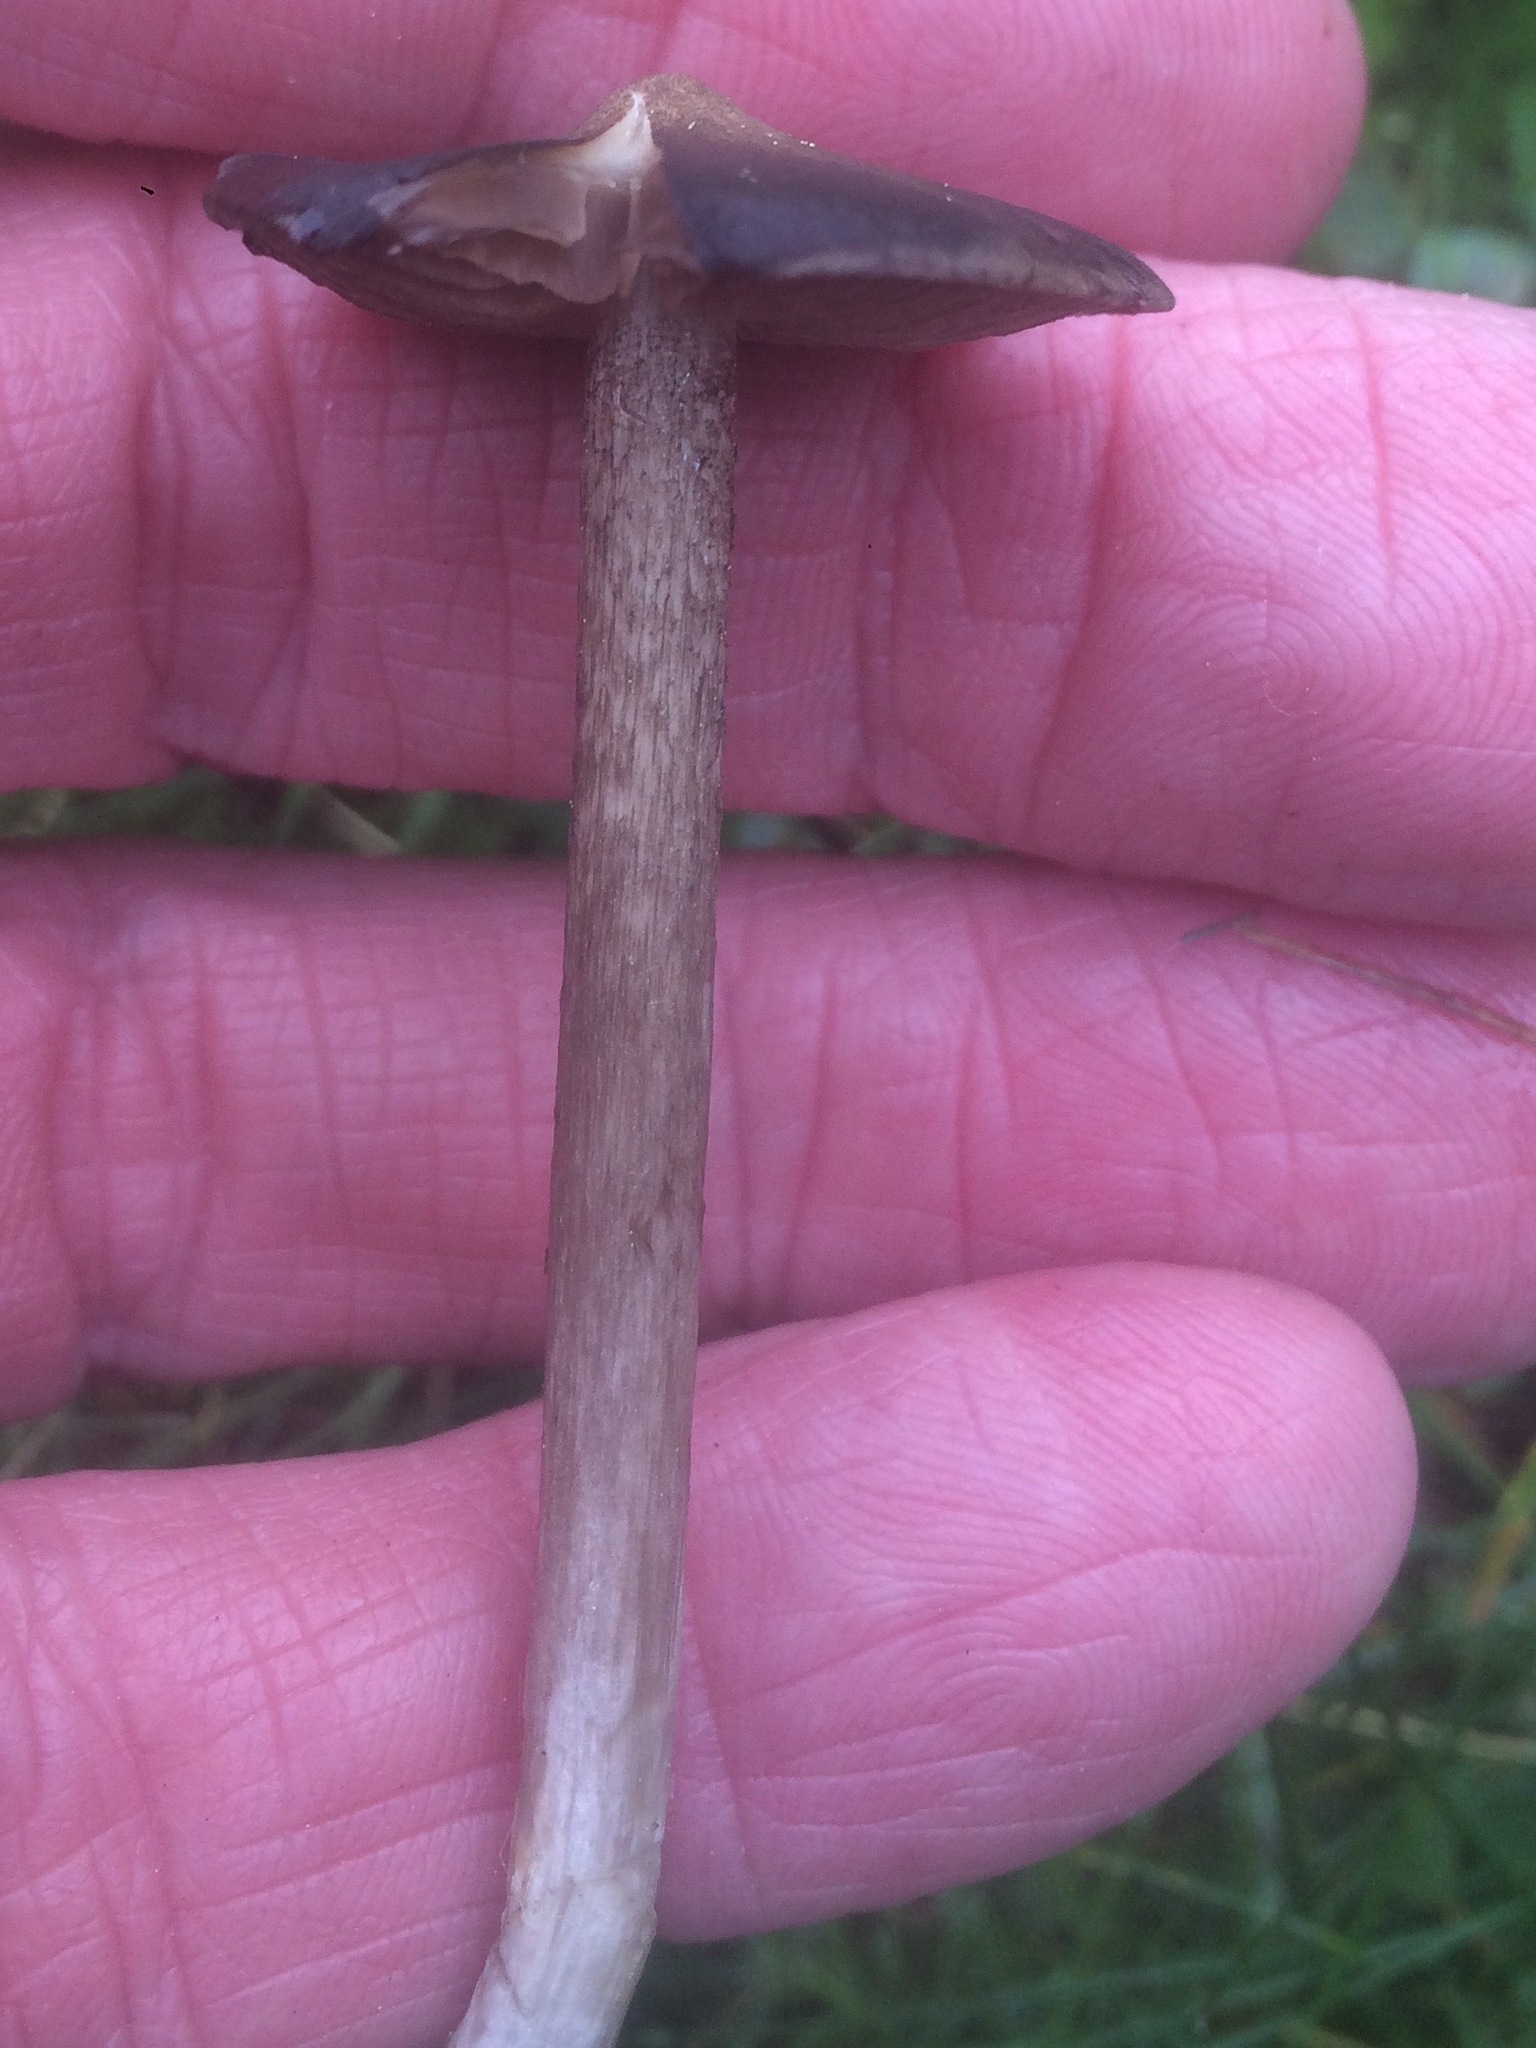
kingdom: Fungi
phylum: Basidiomycota
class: Agaricomycetes
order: Agaricales
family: Entolomataceae
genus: Entoloma
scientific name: Entoloma jubatum
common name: Sepia pinkgill
